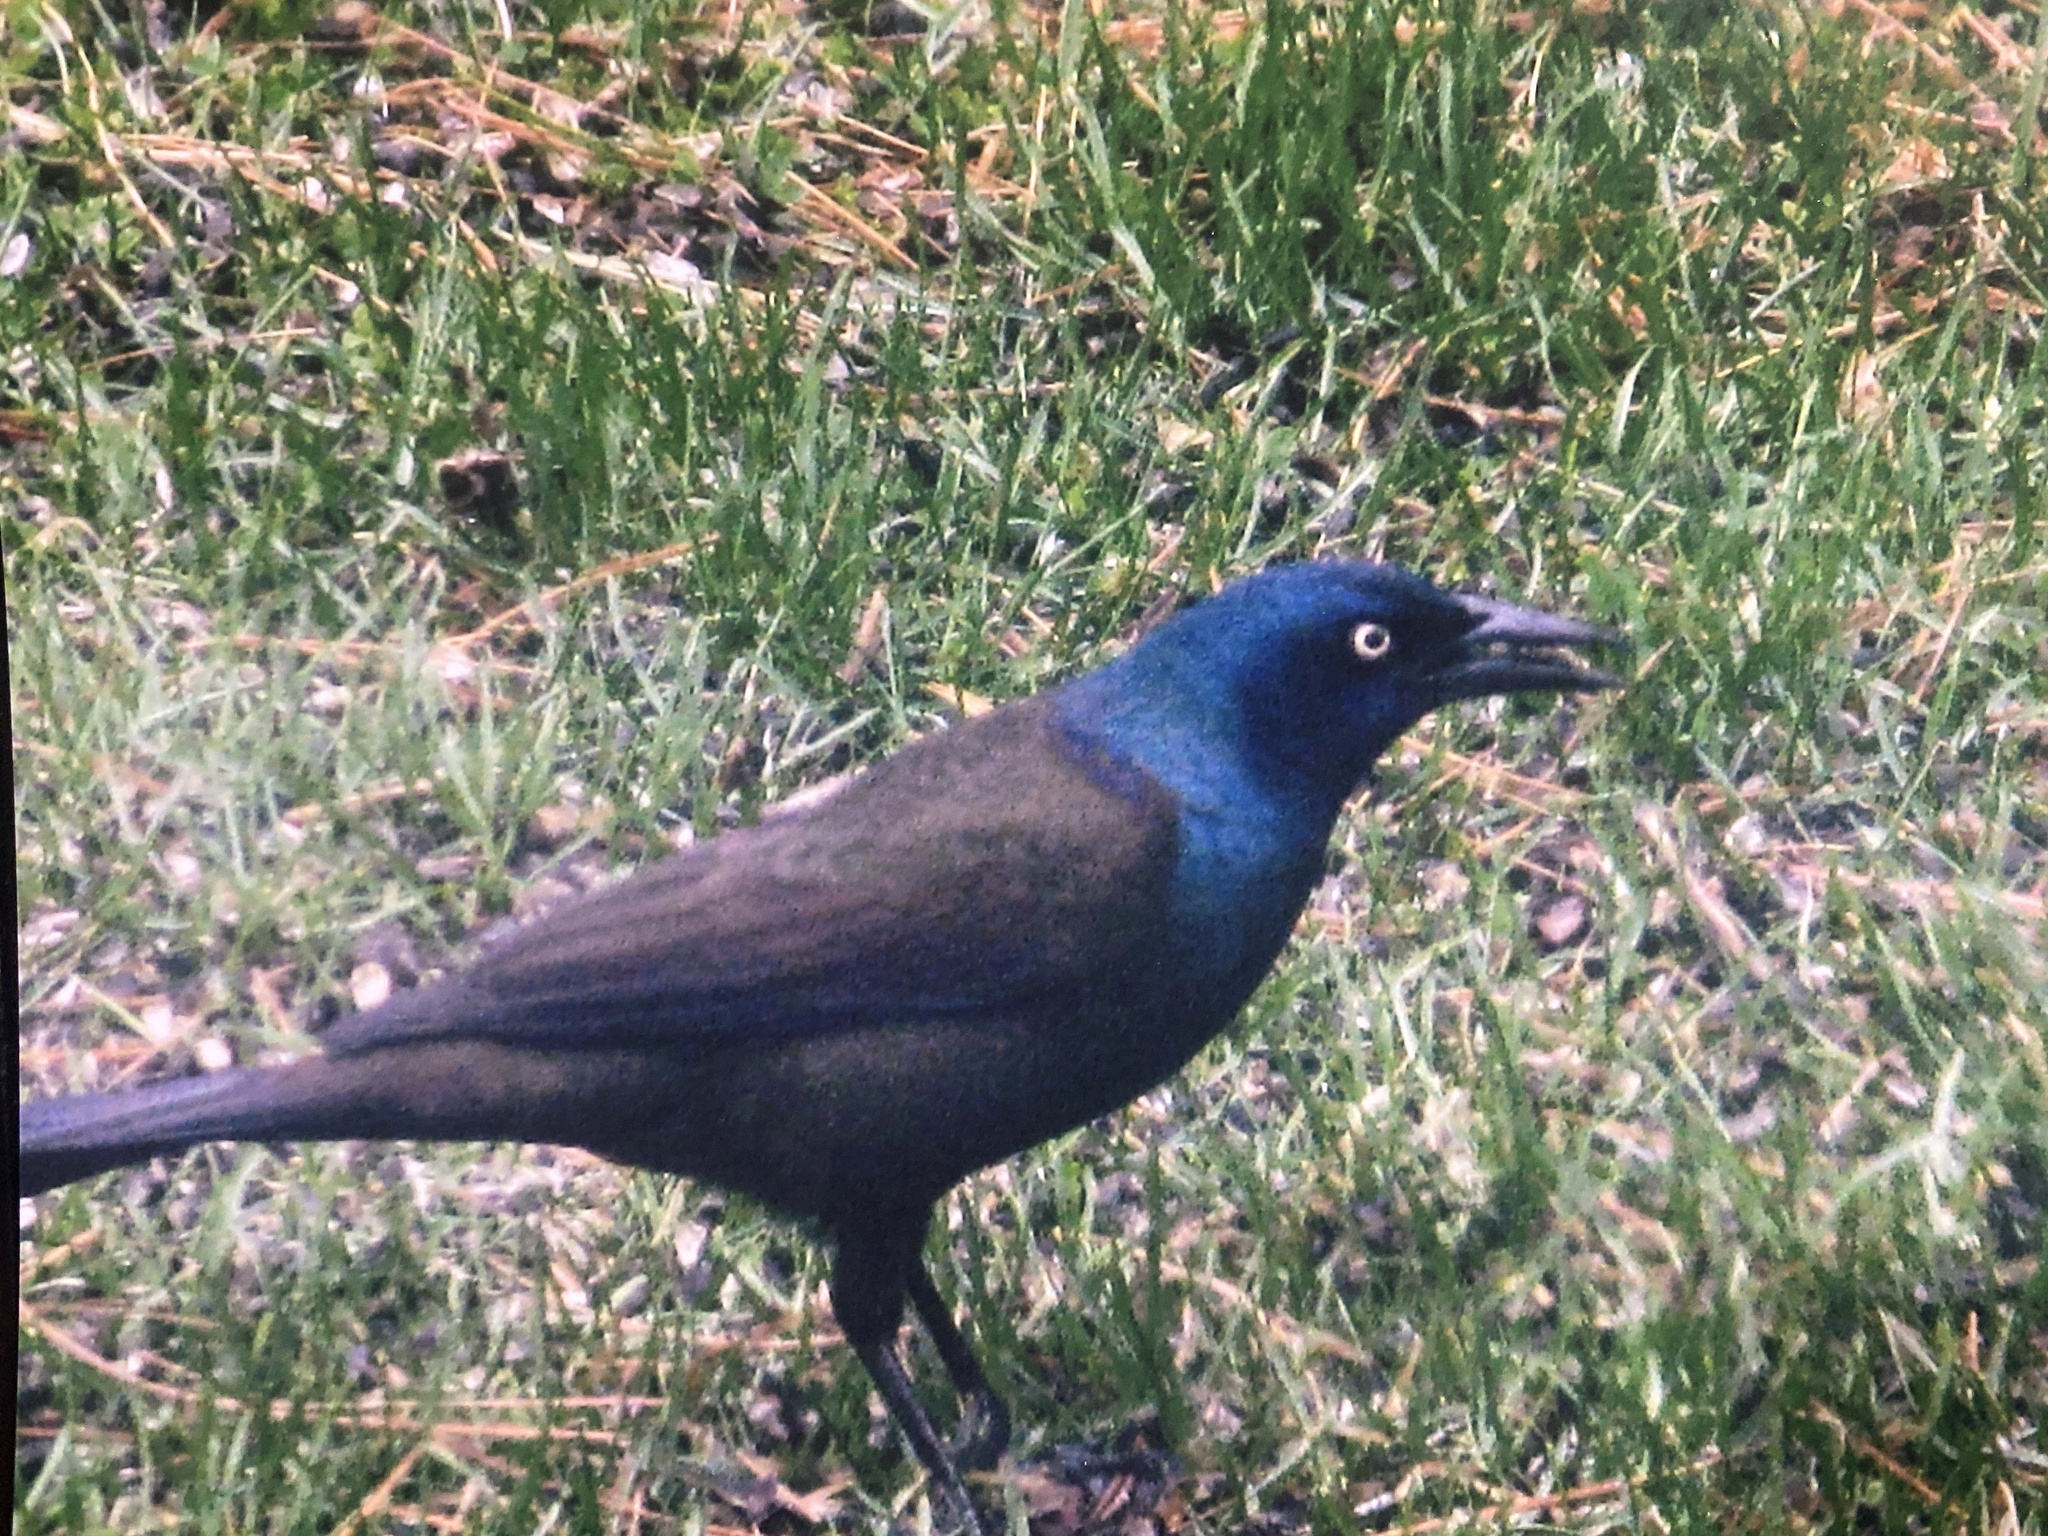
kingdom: Animalia
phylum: Chordata
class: Aves
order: Passeriformes
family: Icteridae
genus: Quiscalus
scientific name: Quiscalus quiscula
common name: Common grackle
